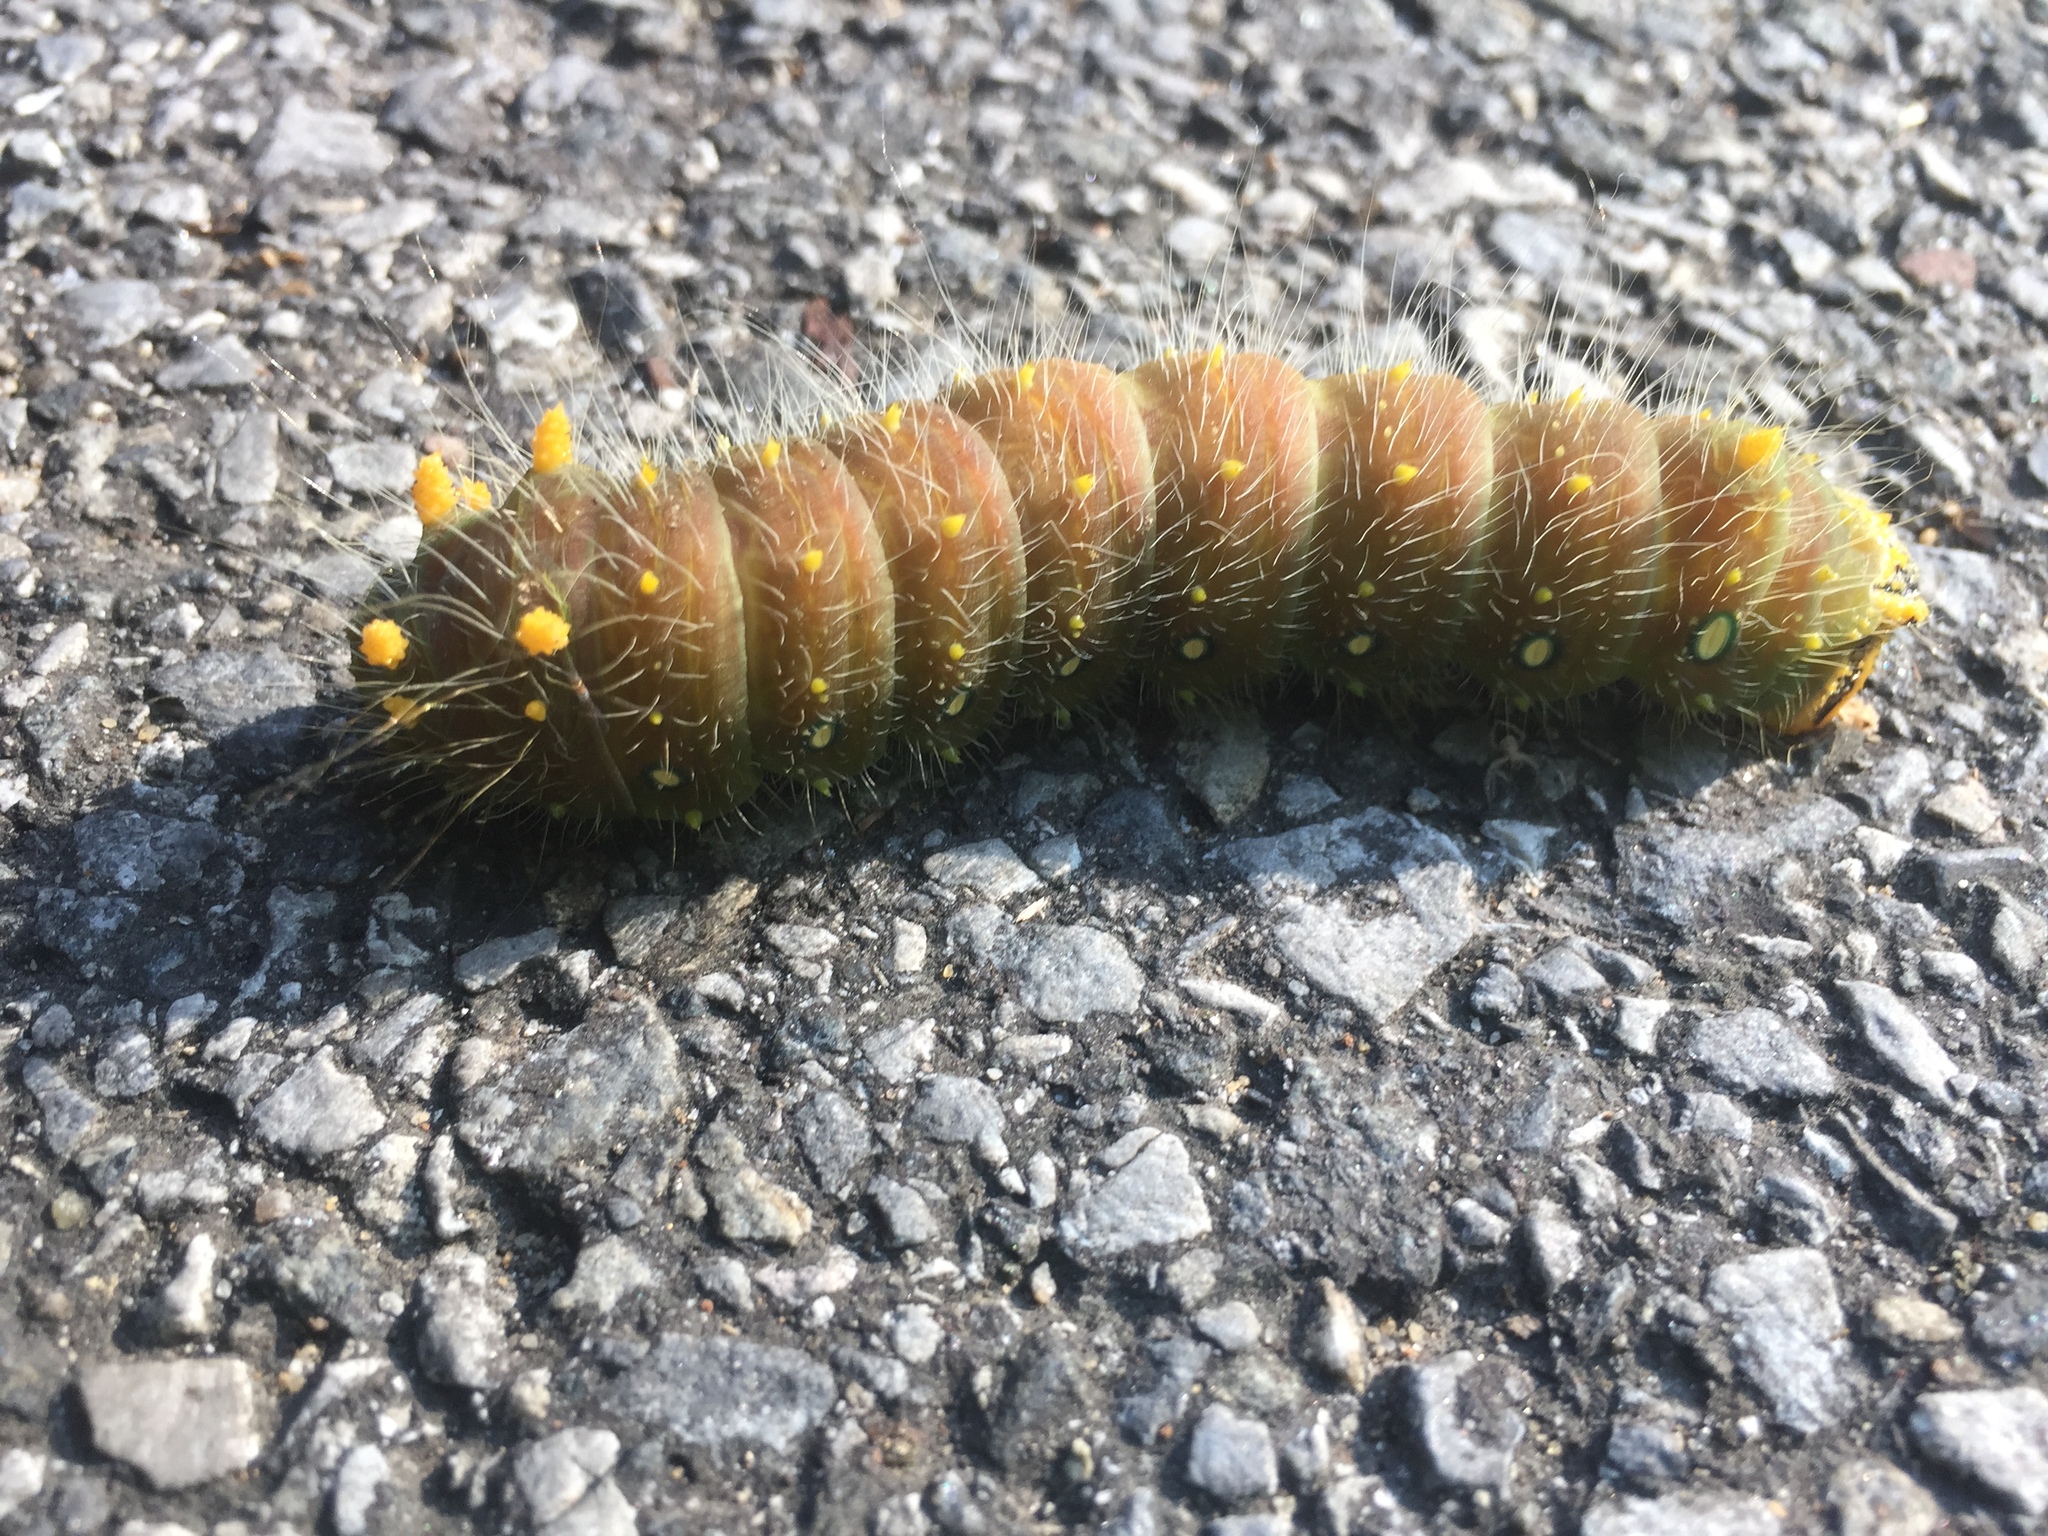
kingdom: Animalia
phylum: Arthropoda
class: Insecta
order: Lepidoptera
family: Saturniidae
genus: Eacles
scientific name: Eacles imperialis
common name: Imperial moth
